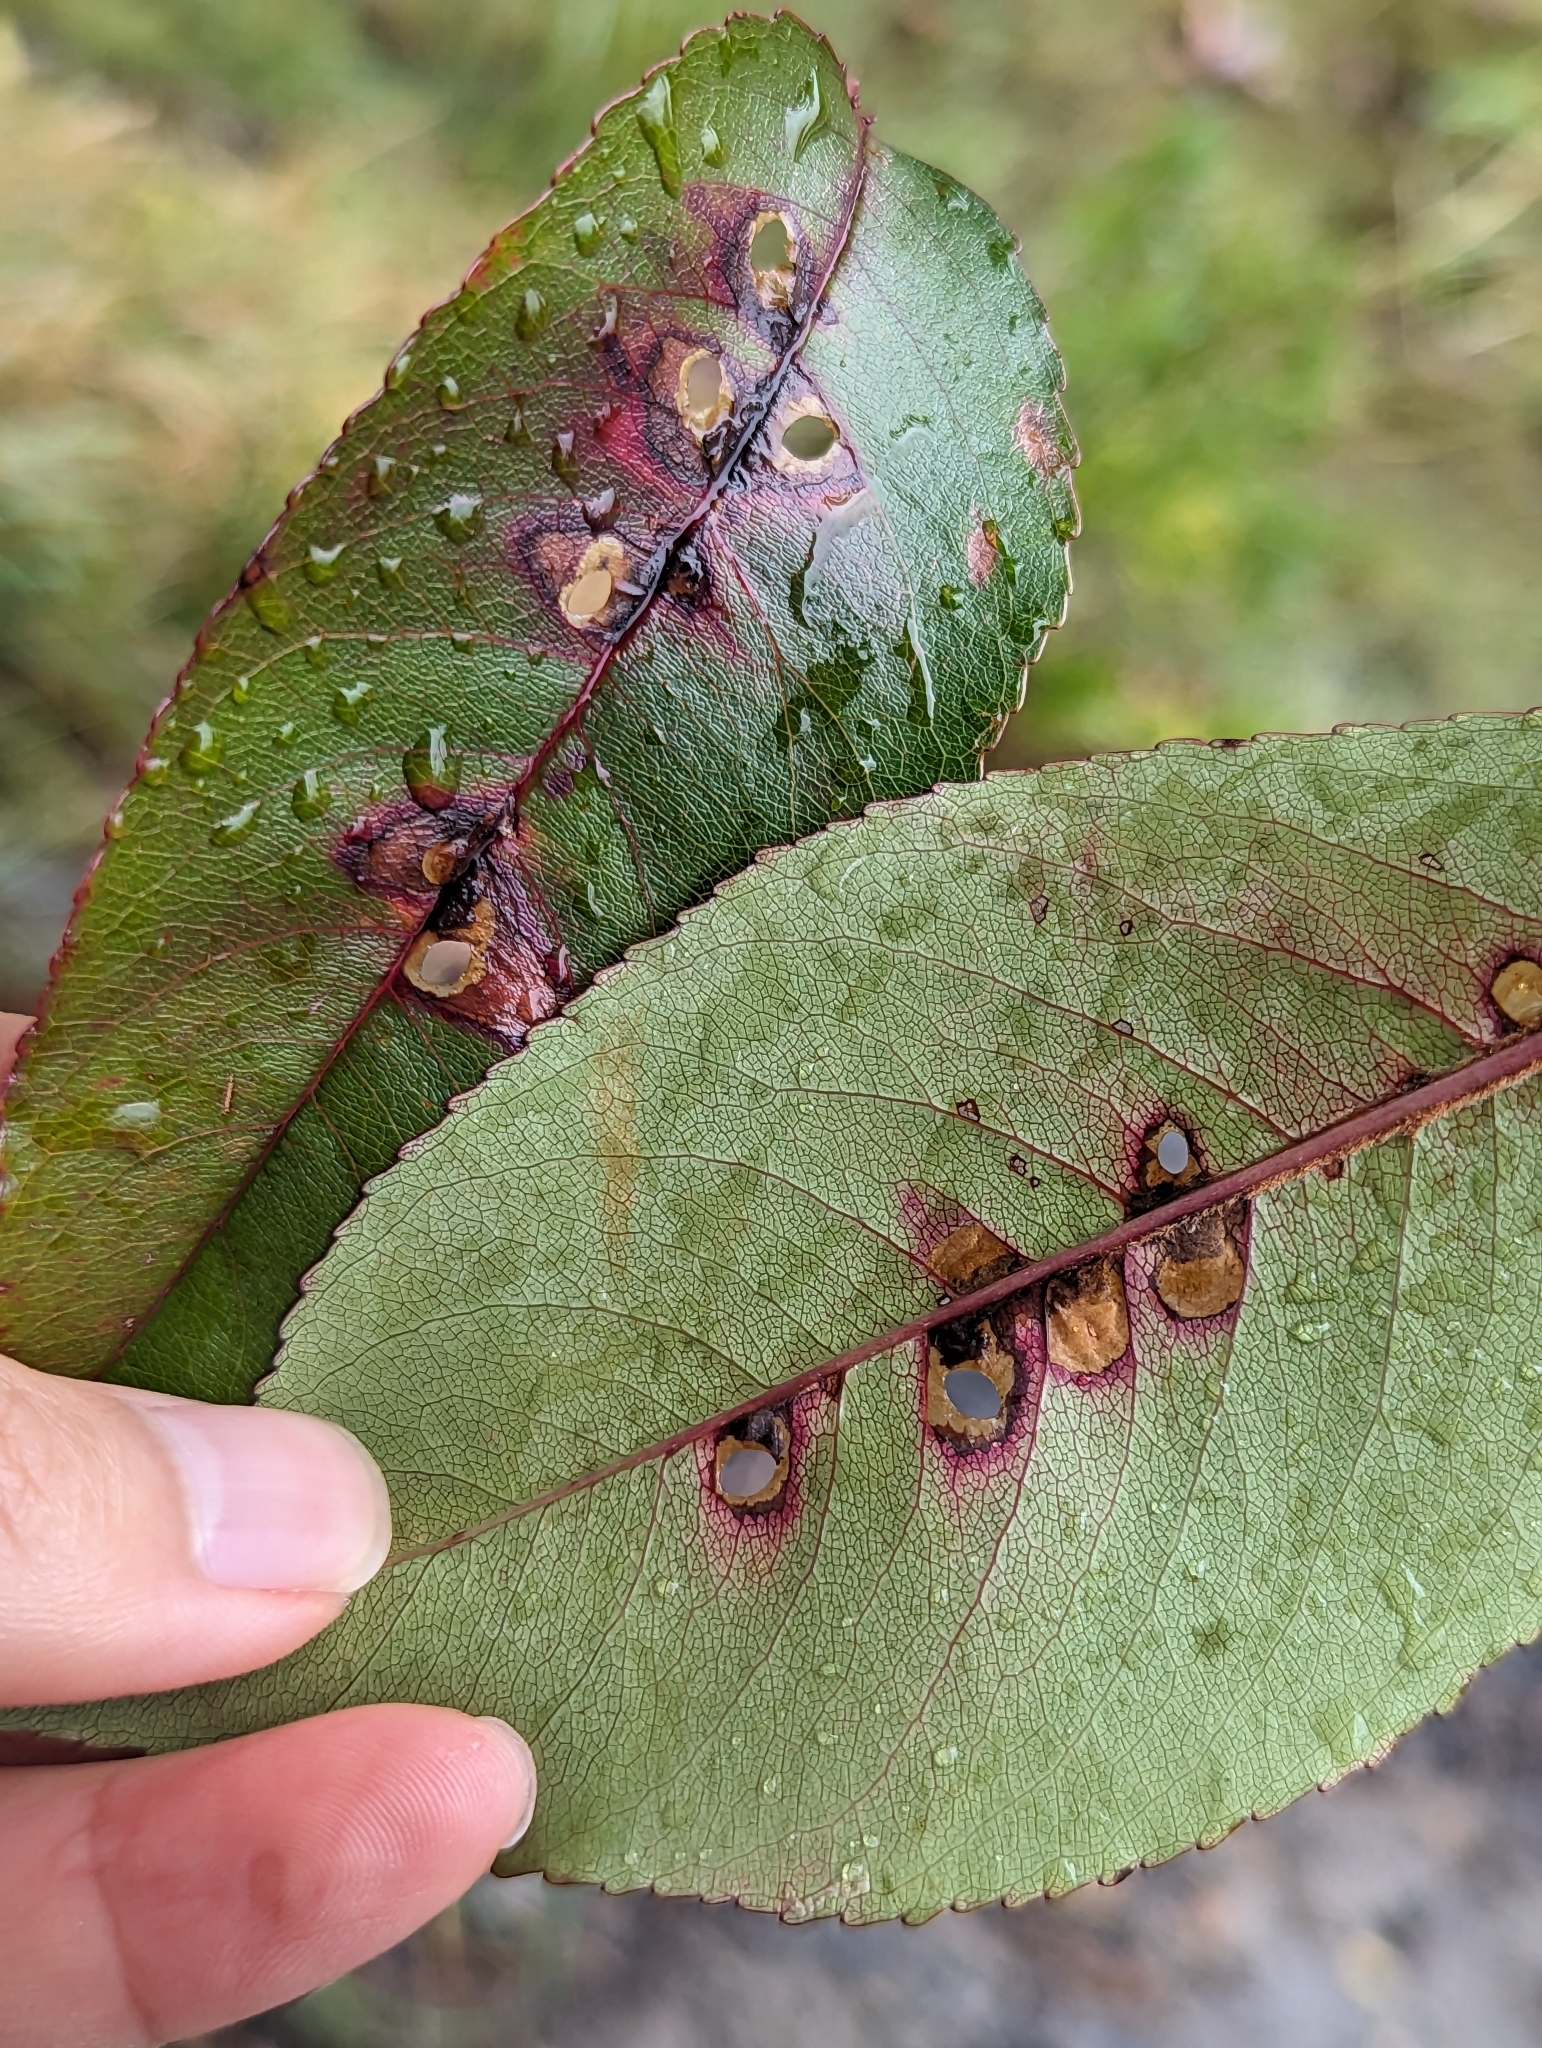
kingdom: Animalia
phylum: Arthropoda
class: Insecta
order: Lepidoptera
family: Heliozelidae
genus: Coptodisca
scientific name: Coptodisca splendoriferella
